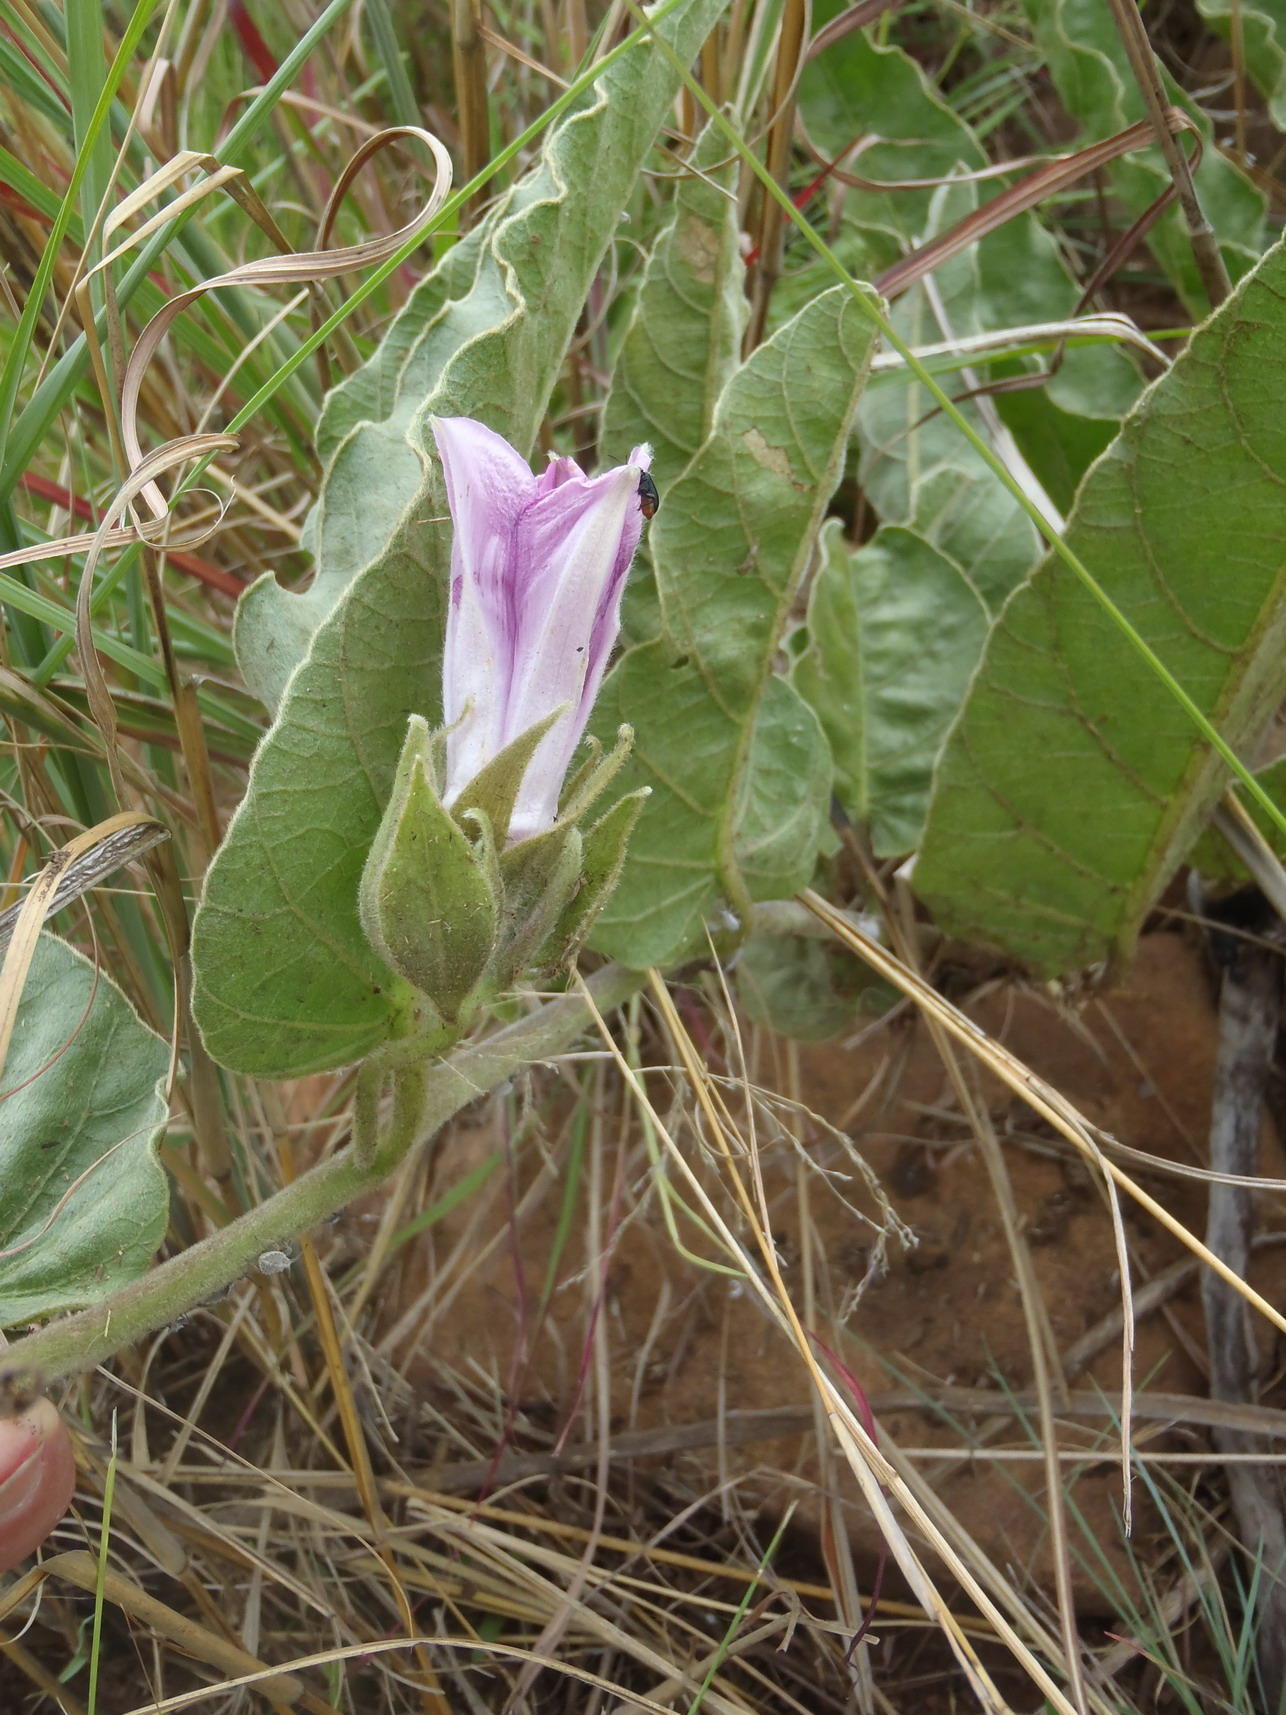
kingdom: Plantae
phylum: Tracheophyta
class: Magnoliopsida
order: Solanales
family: Convolvulaceae
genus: Ipomoea
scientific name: Ipomoea ommanneyi
